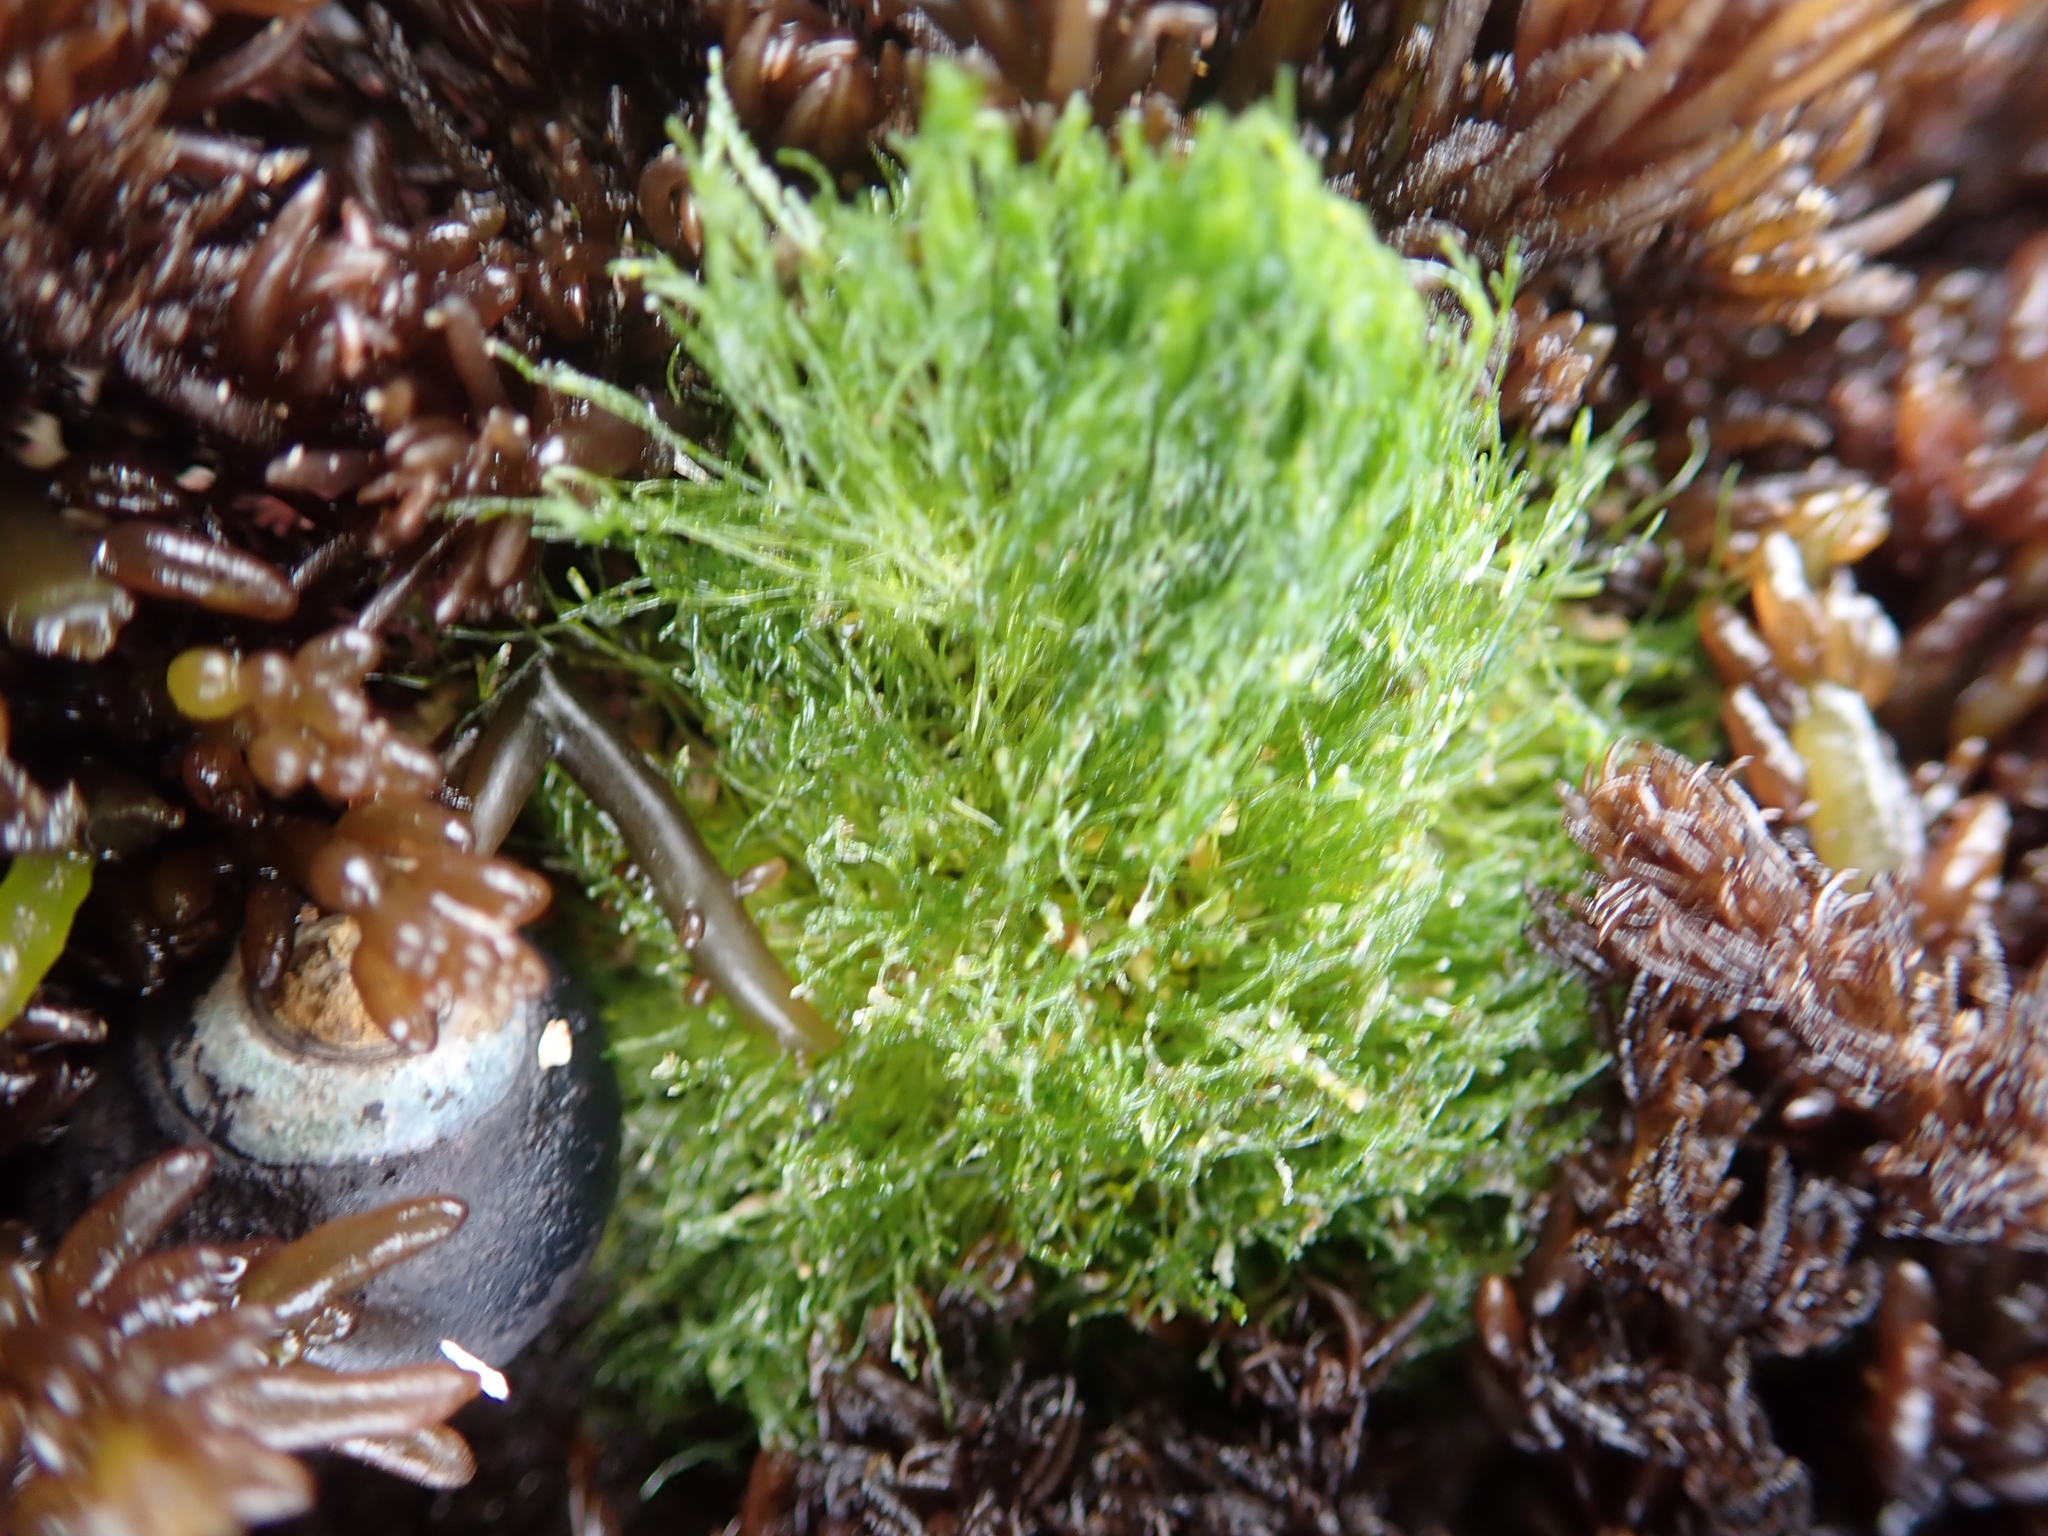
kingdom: Plantae
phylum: Chlorophyta
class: Ulvophyceae
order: Cladophorales
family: Cladophoraceae
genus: Cladophora
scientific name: Cladophora columbiana
